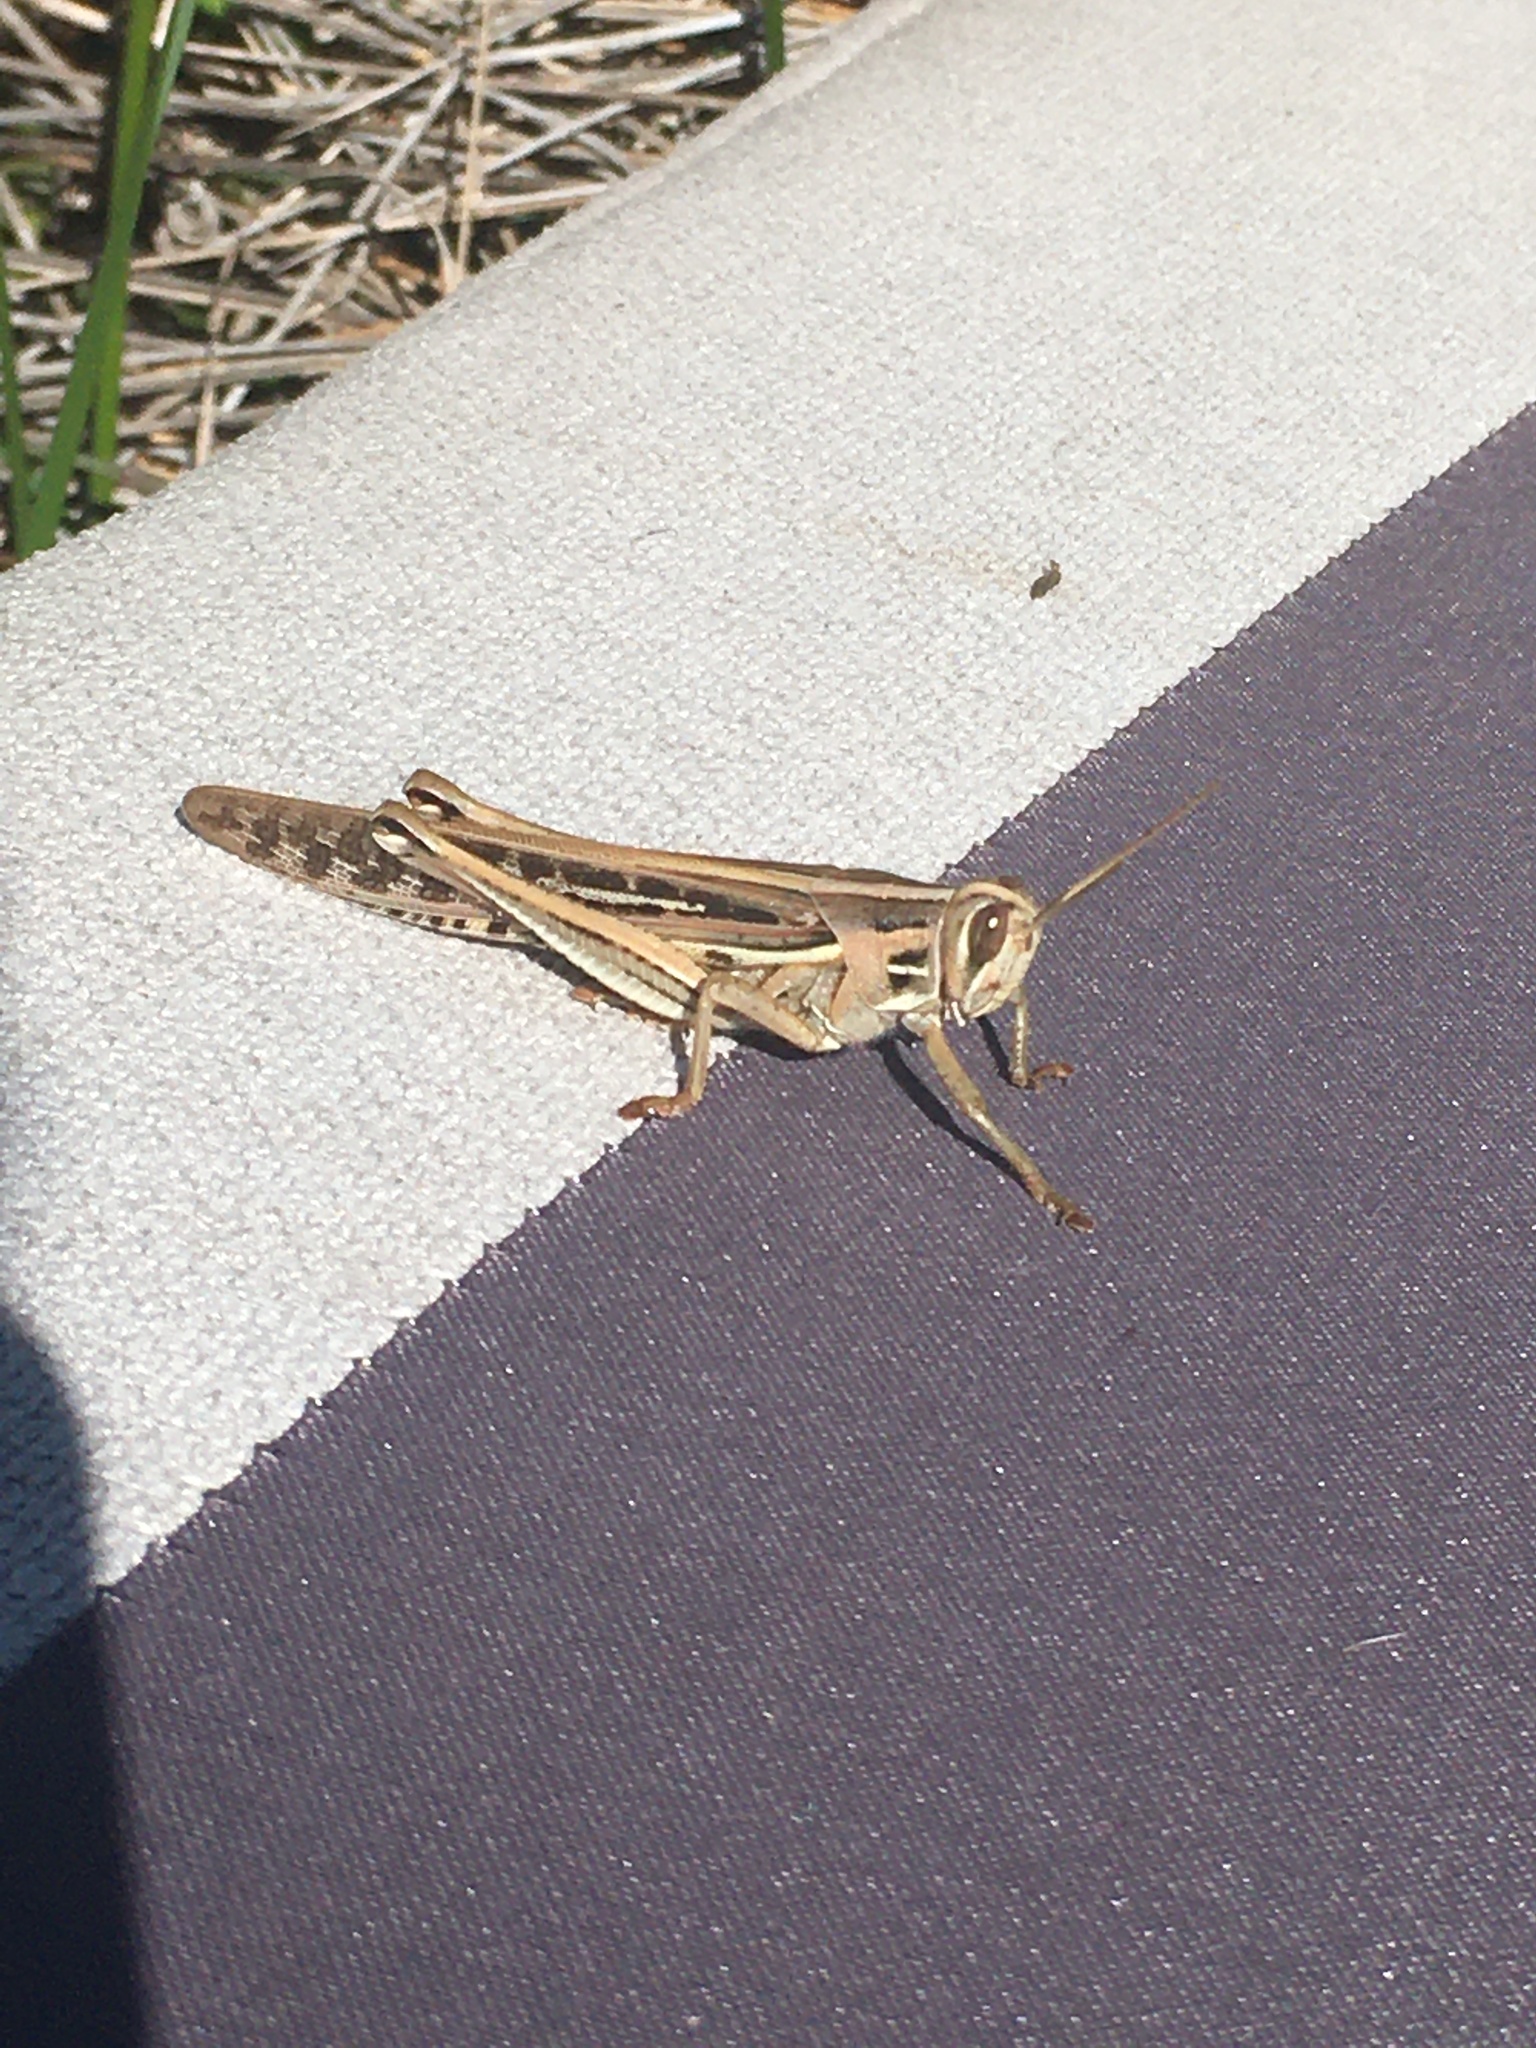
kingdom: Animalia
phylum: Arthropoda
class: Insecta
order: Orthoptera
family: Acrididae
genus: Schistocerca
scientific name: Schistocerca americana
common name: American bird locust
